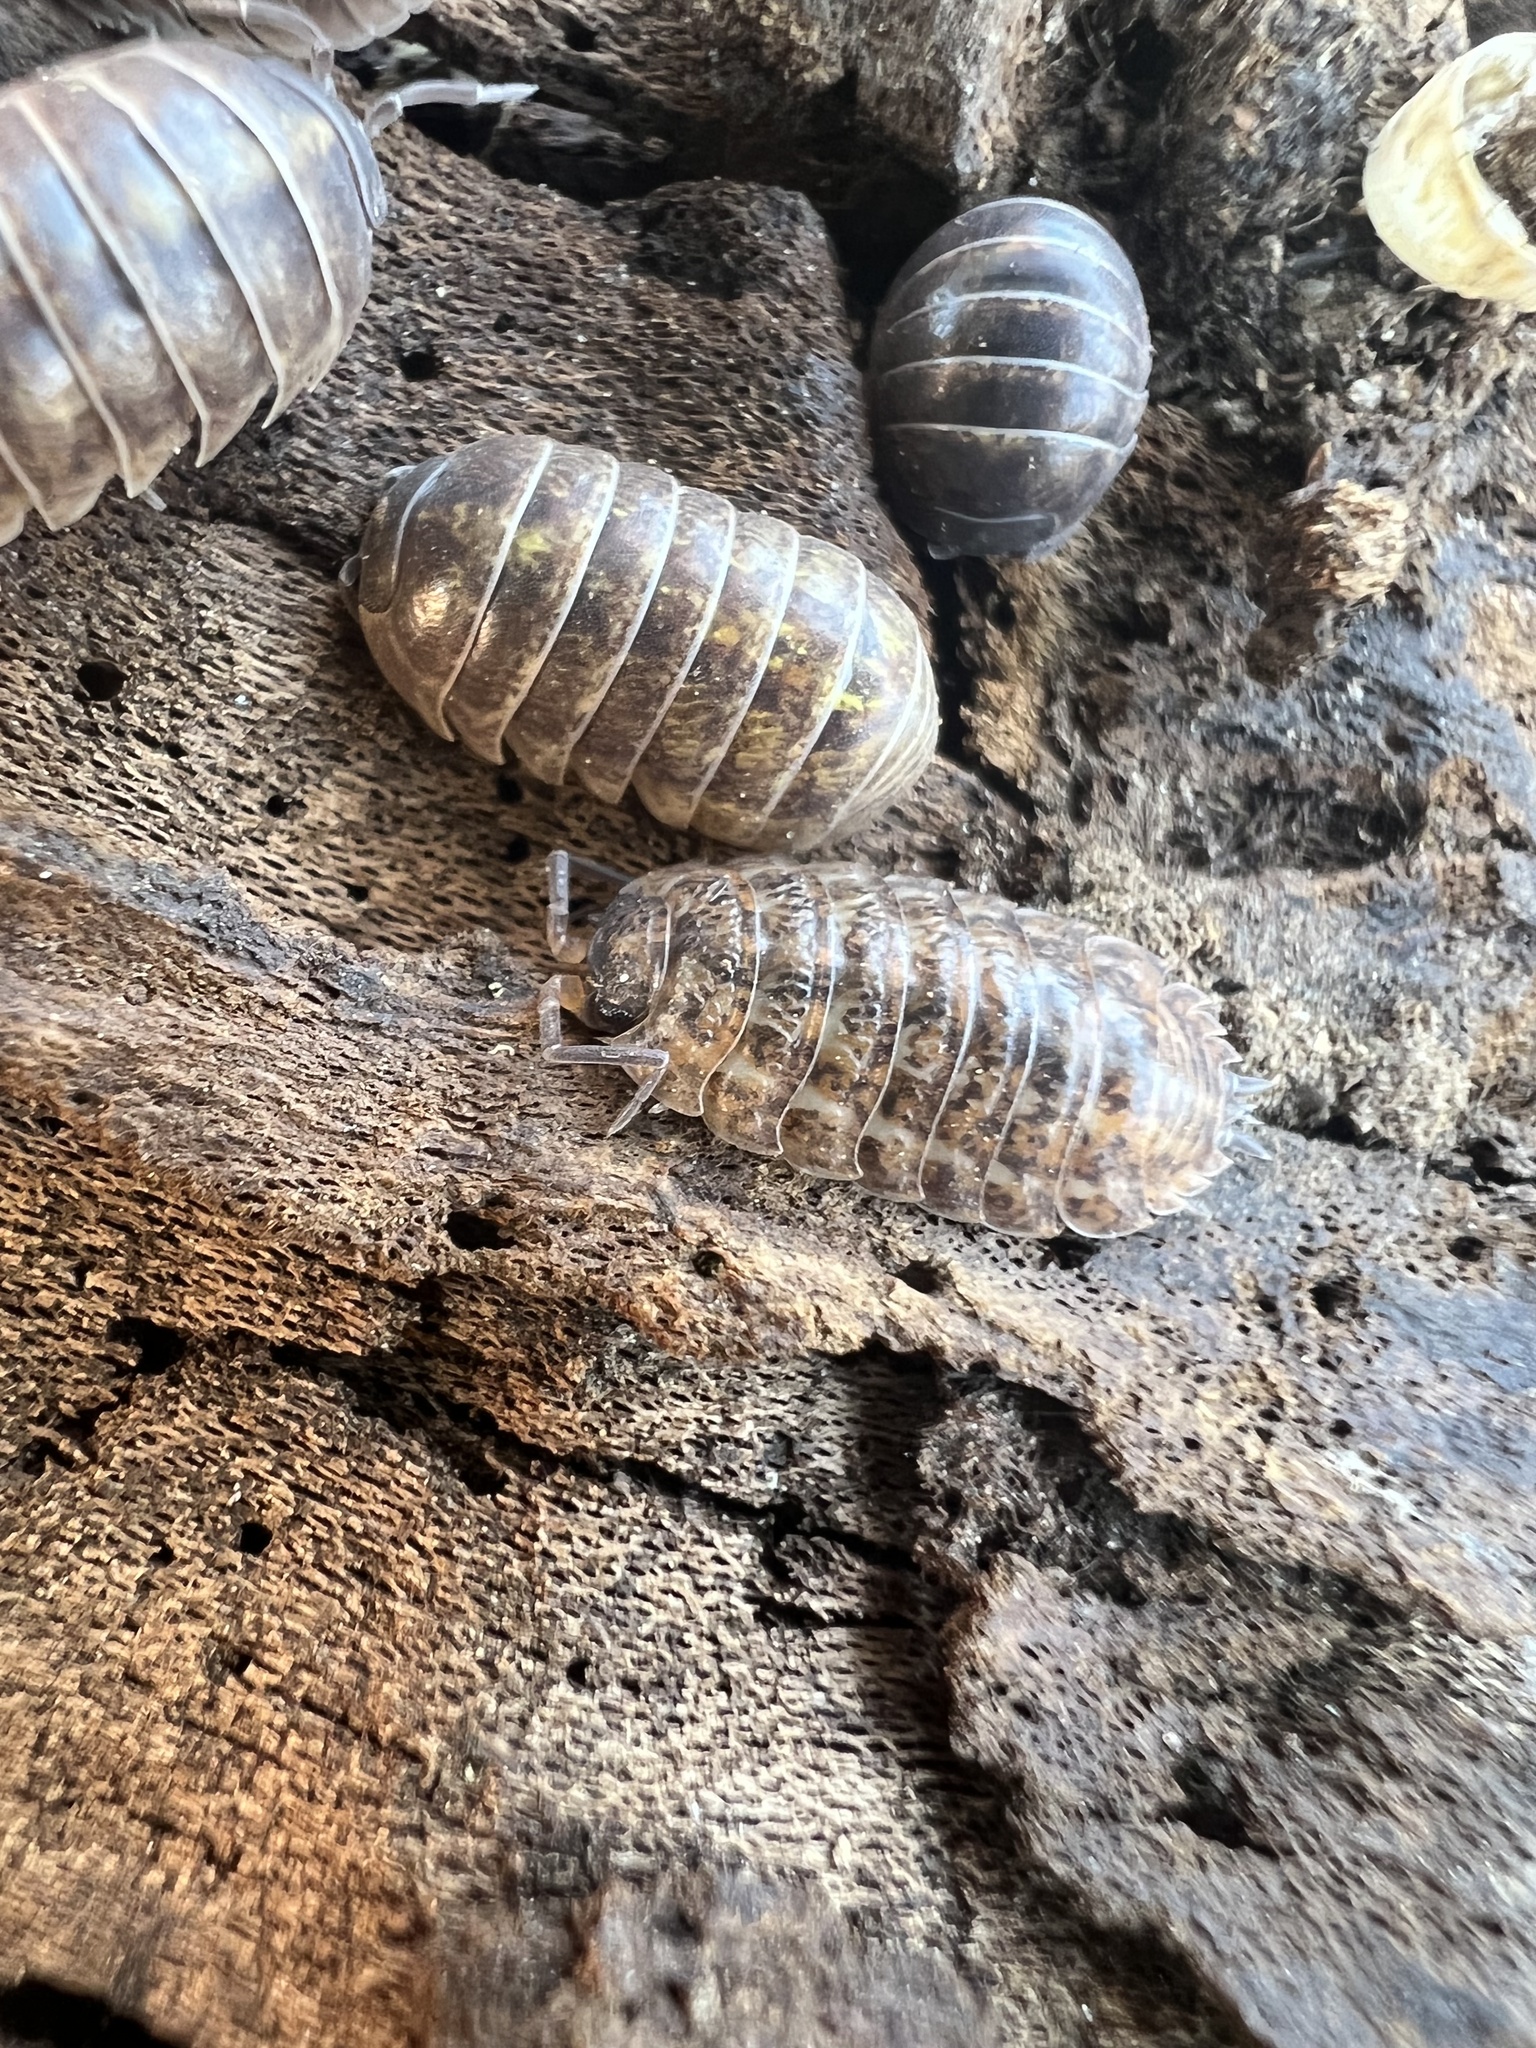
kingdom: Animalia
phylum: Arthropoda
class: Malacostraca
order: Isopoda
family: Trachelipodidae
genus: Trachelipus
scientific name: Trachelipus rathkii
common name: Isopod
